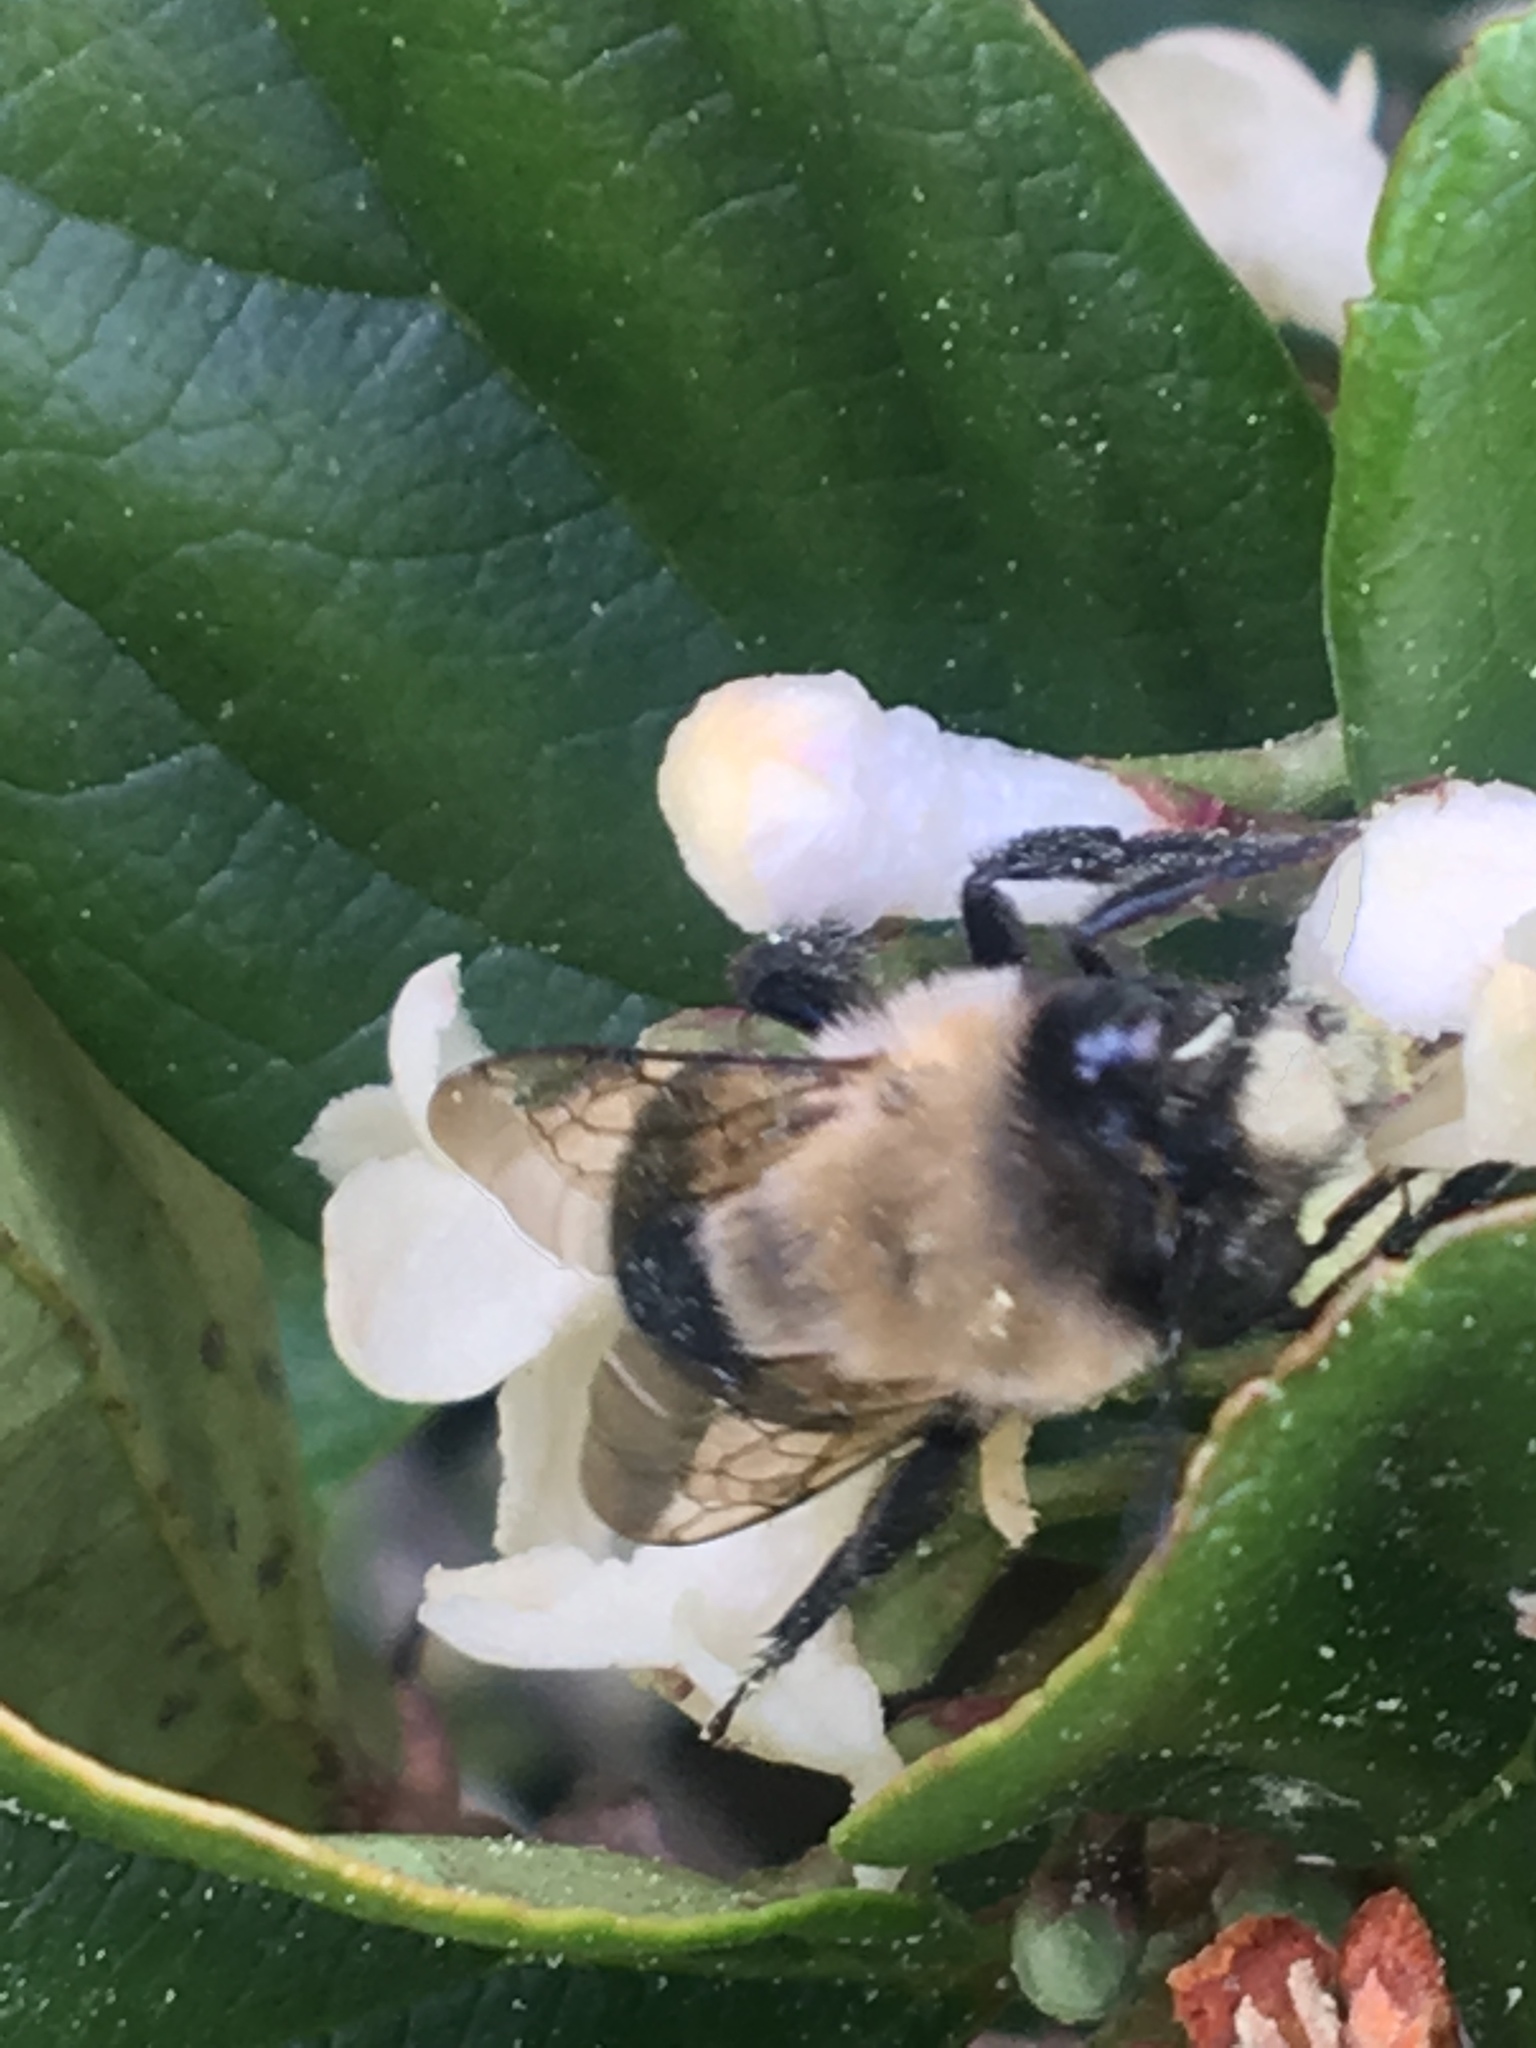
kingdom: Animalia
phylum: Arthropoda
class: Insecta
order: Hymenoptera
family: Apidae
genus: Habropoda
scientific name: Habropoda laboriosa
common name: Southeastern blueberry bee
